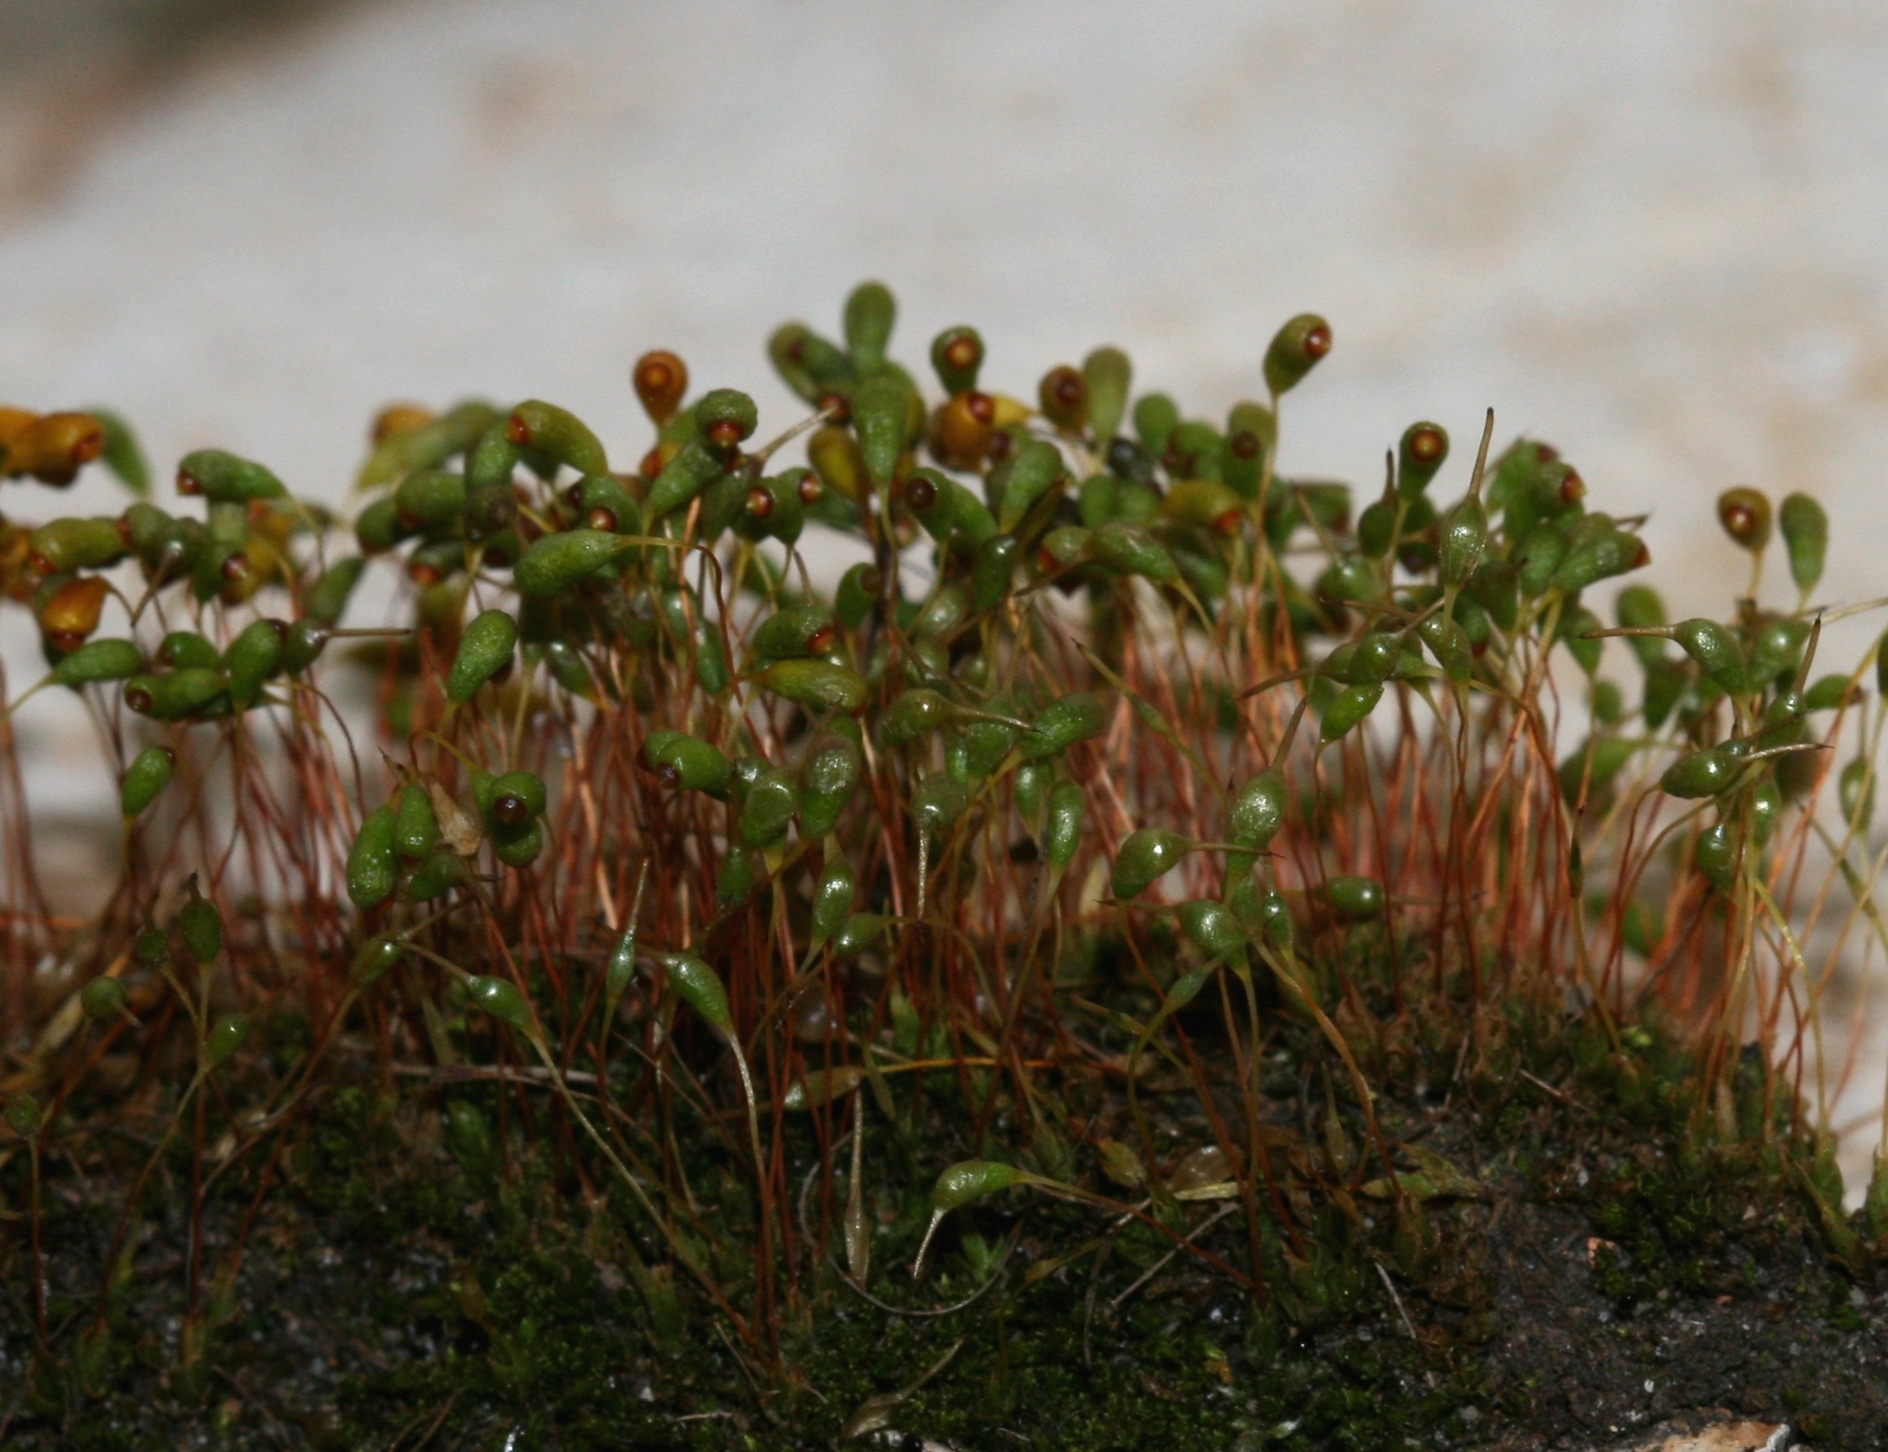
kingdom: Plantae
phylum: Bryophyta
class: Bryopsida
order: Funariales
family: Funariaceae
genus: Funaria
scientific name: Funaria hygrometrica
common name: Common cord moss
